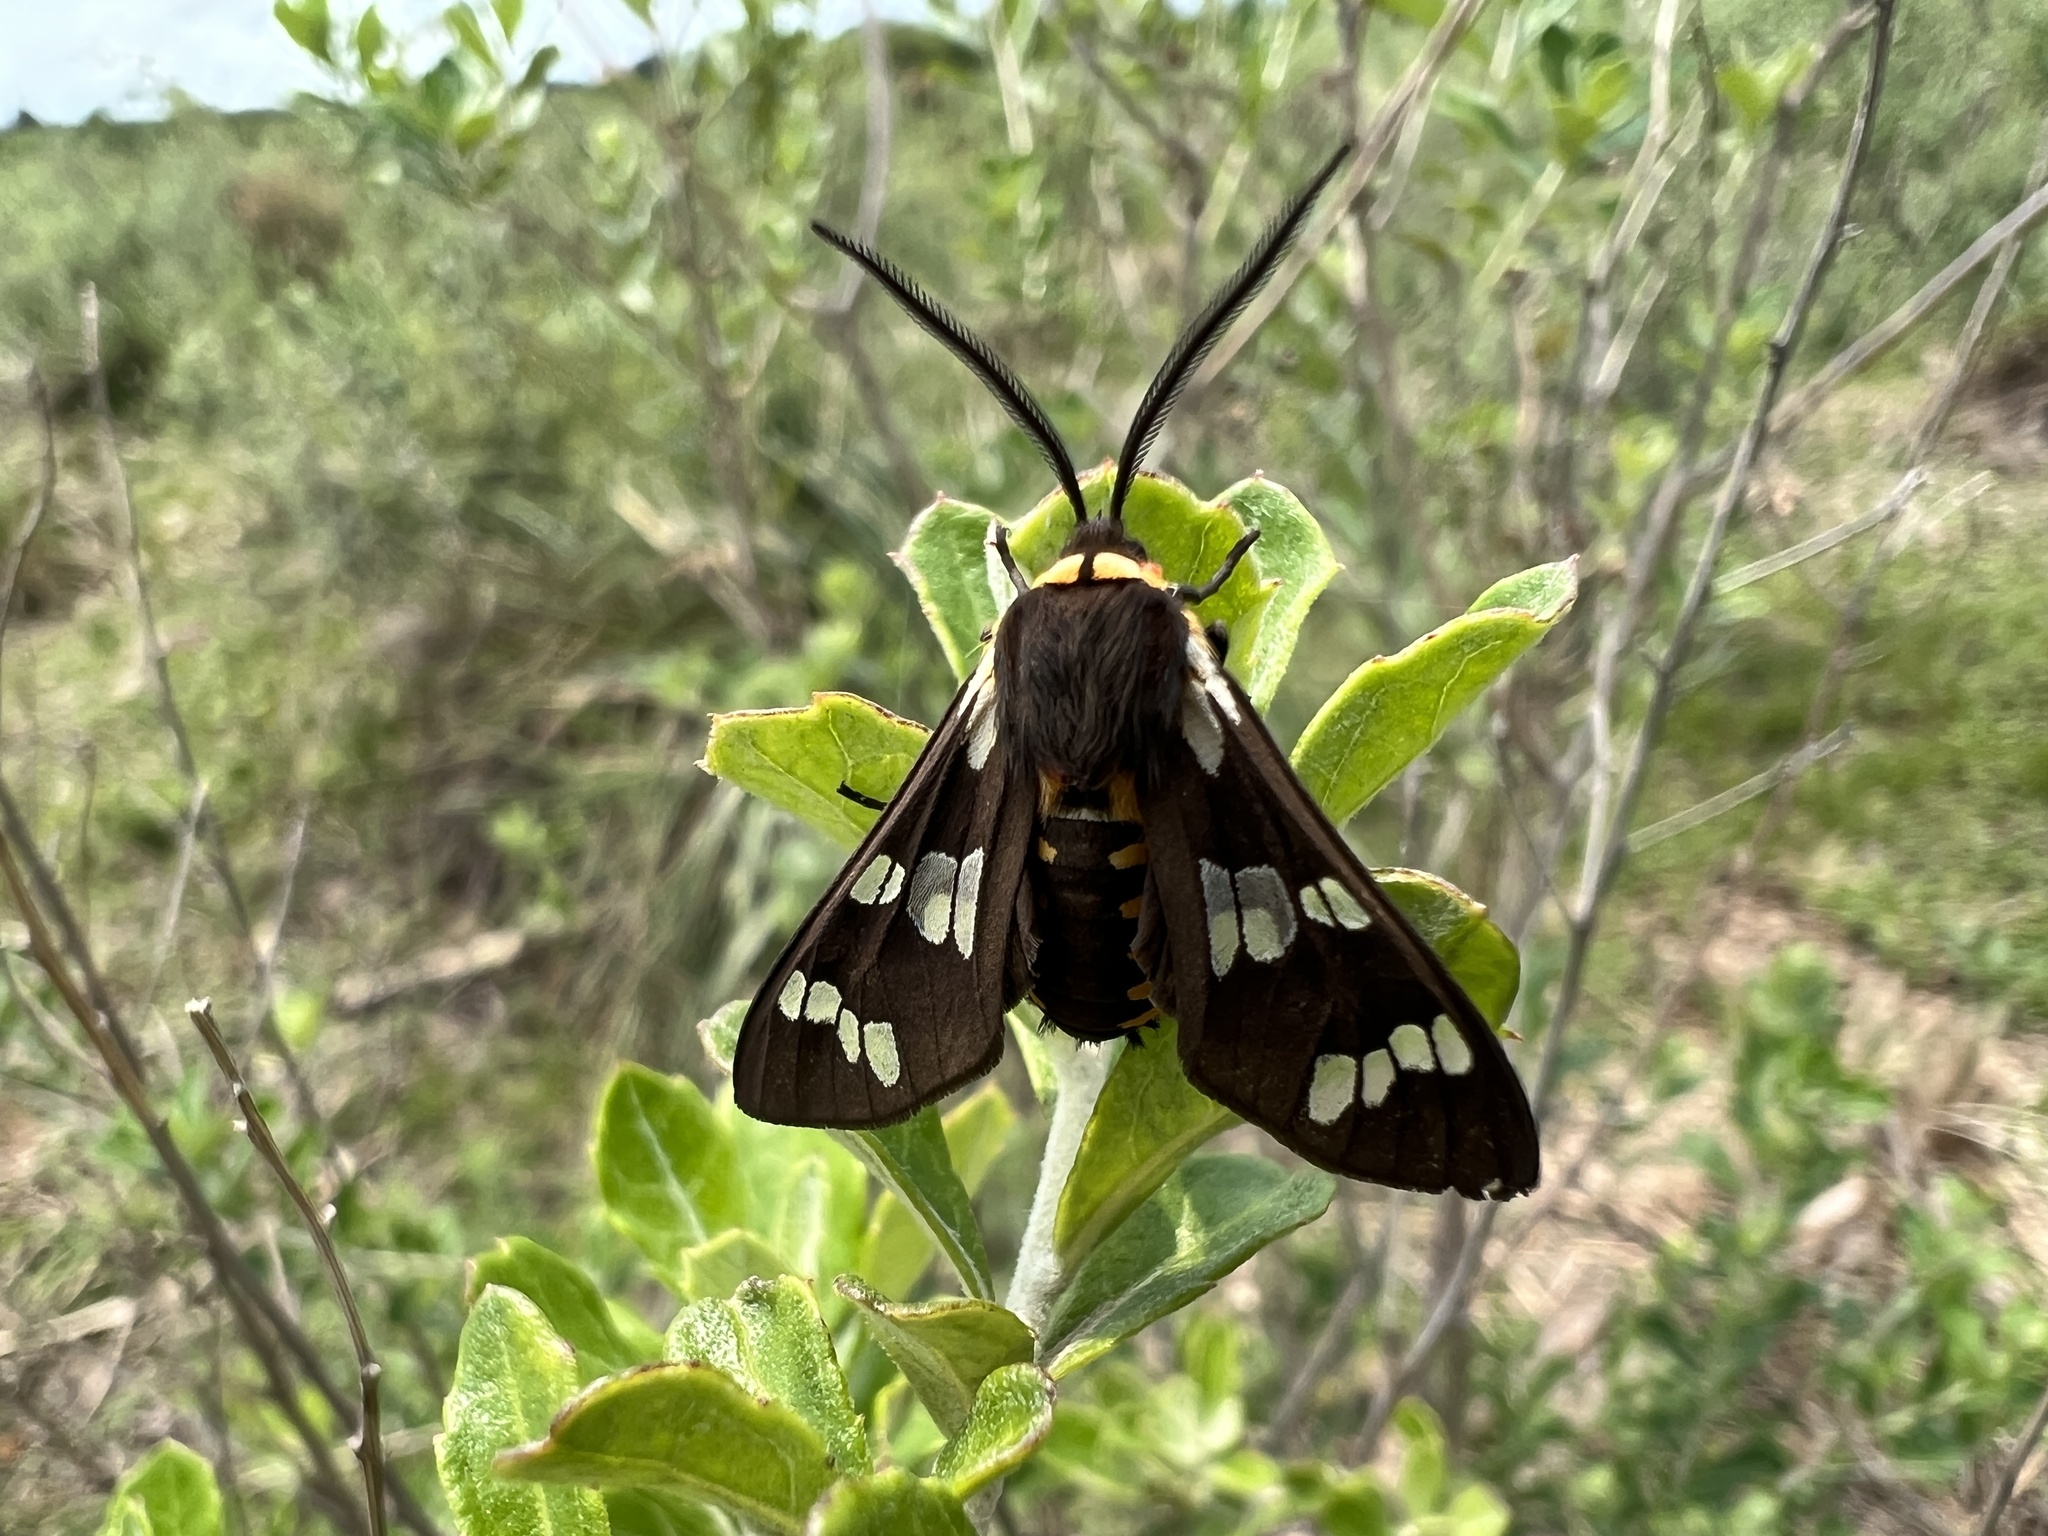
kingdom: Animalia
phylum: Arthropoda
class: Insecta
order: Lepidoptera
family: Erebidae
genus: Eurata
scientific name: Eurata
